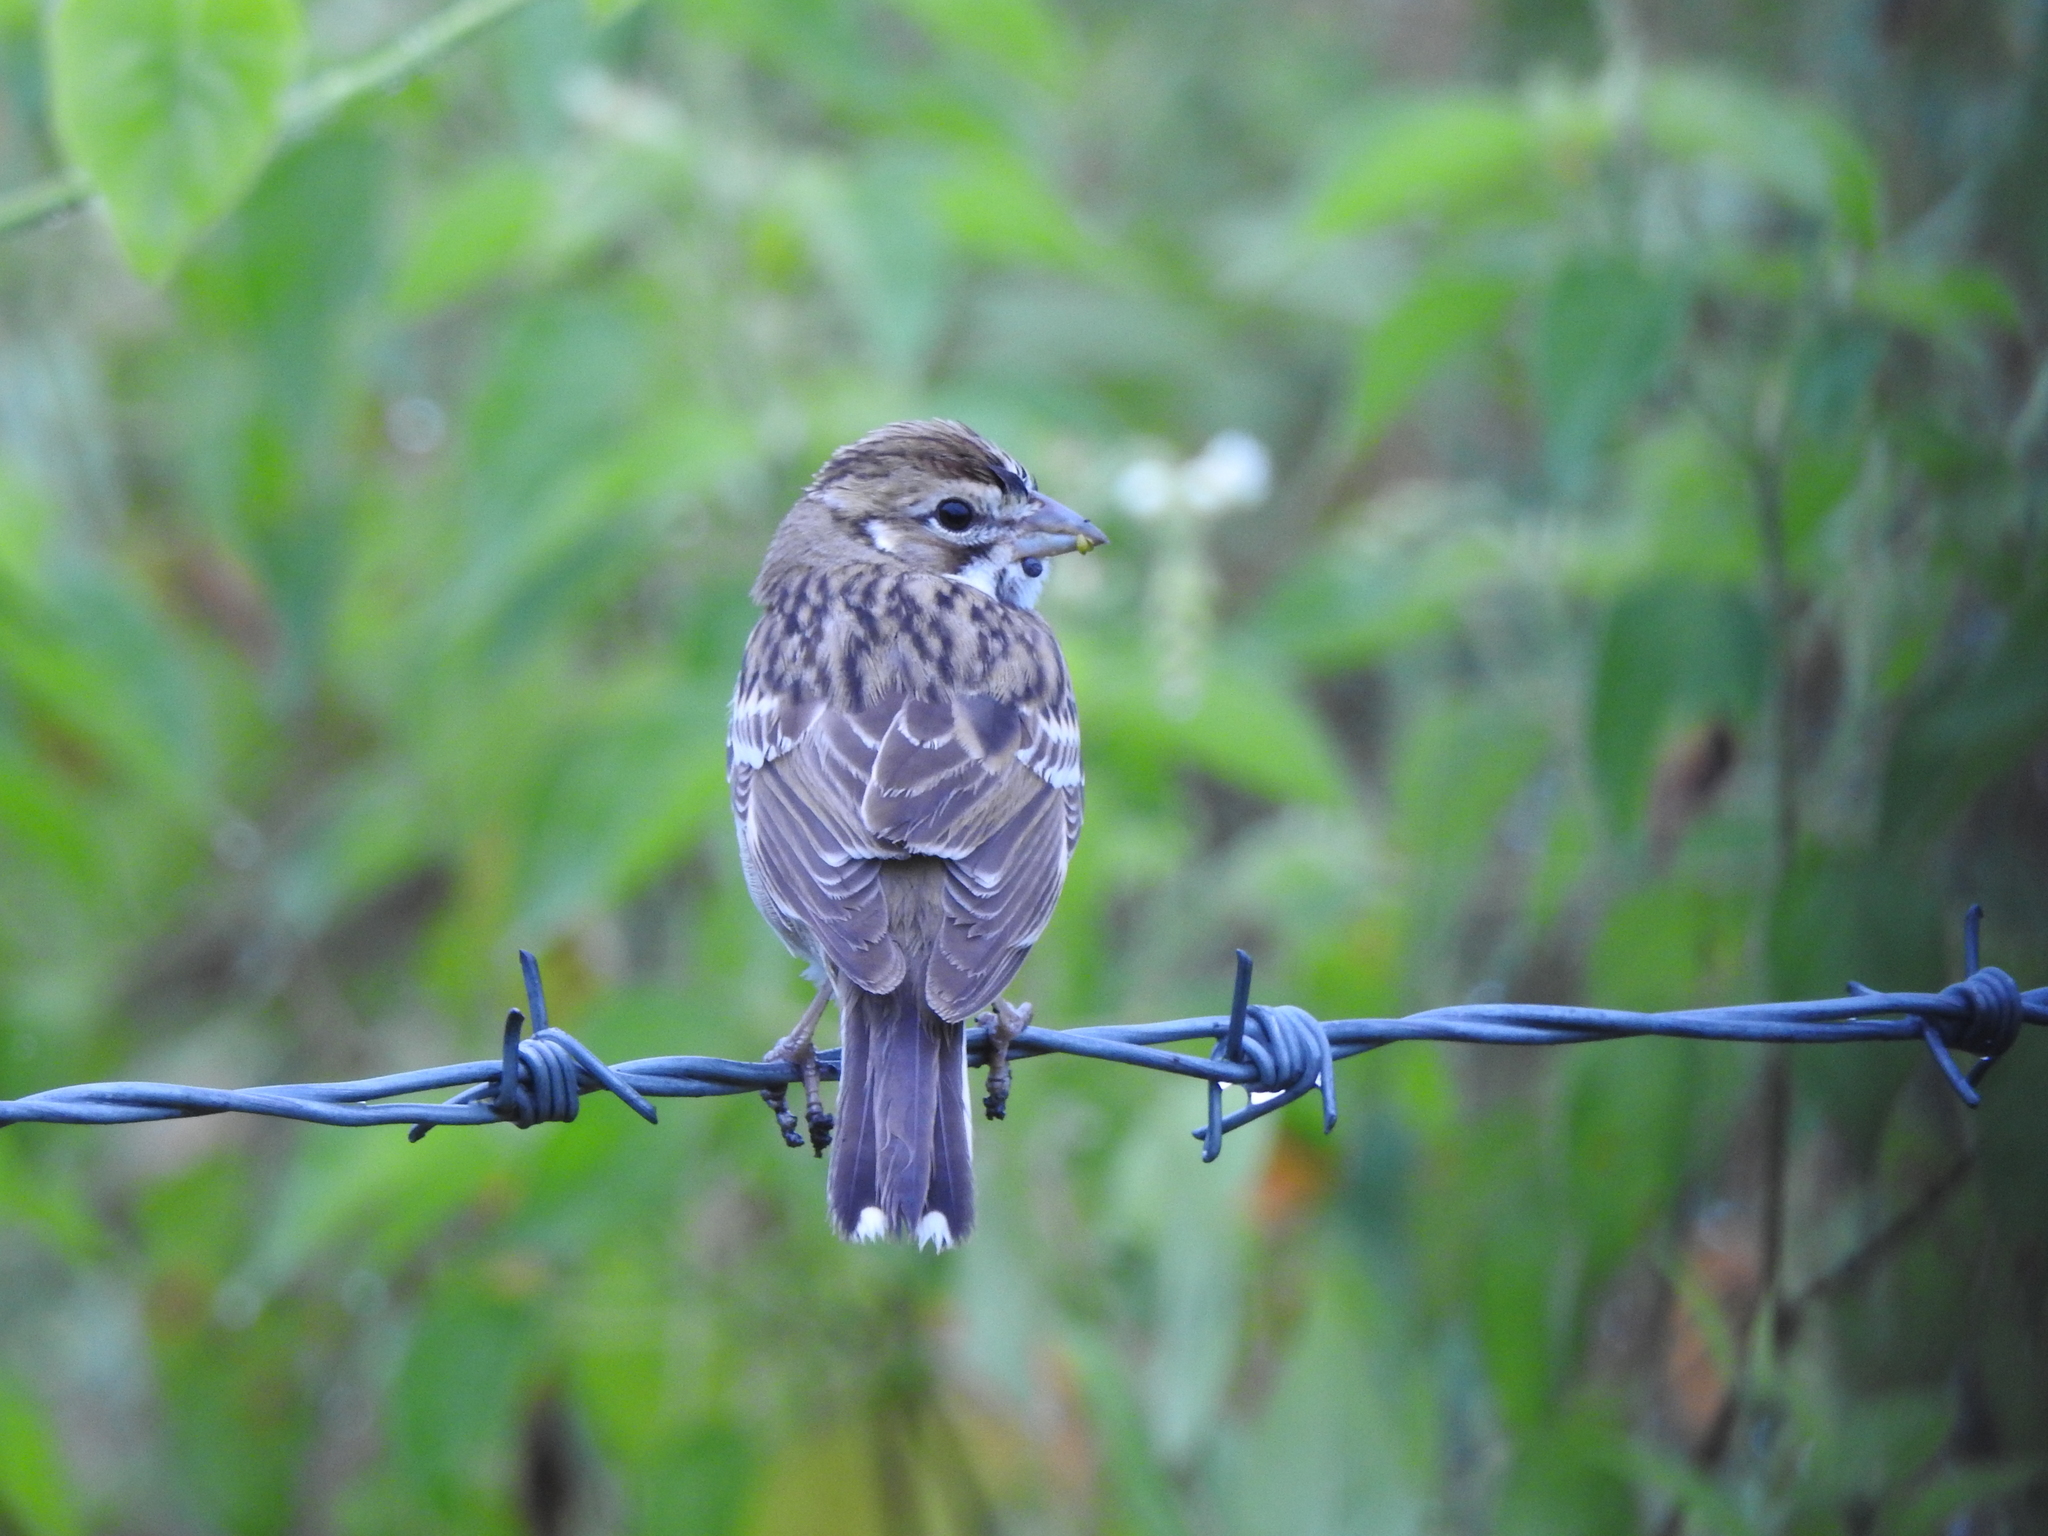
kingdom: Animalia
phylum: Chordata
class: Aves
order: Passeriformes
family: Passerellidae
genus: Chondestes
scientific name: Chondestes grammacus
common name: Lark sparrow
